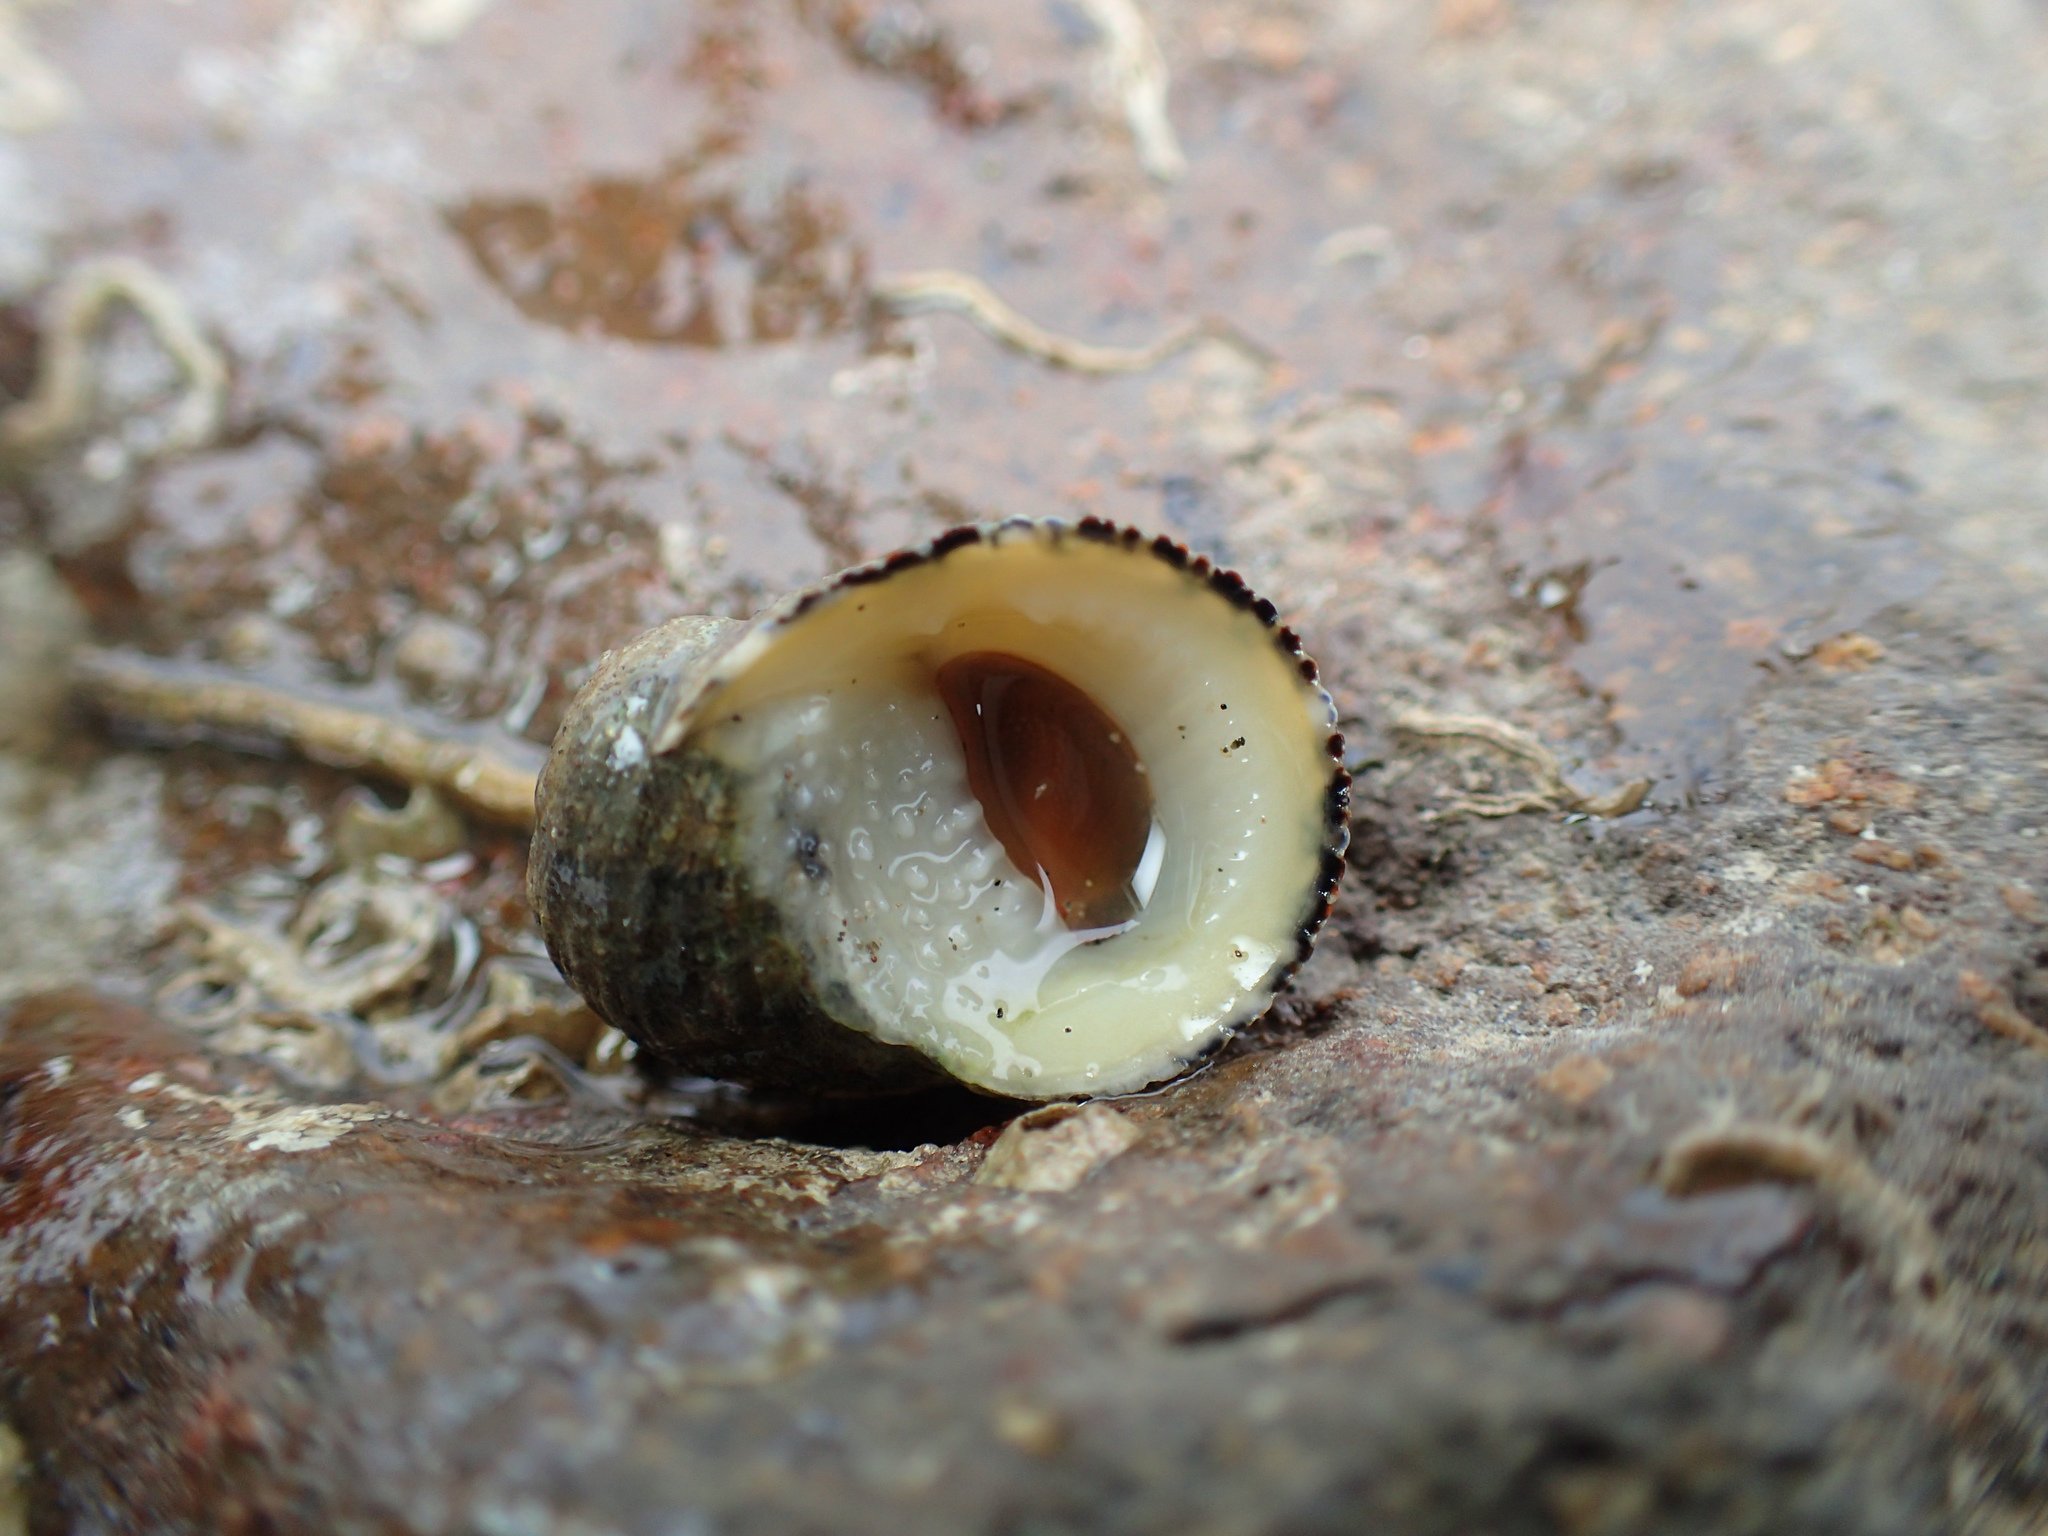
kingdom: Animalia
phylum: Mollusca
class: Gastropoda
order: Cycloneritida
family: Neritidae
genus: Nerita
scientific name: Nerita funiculata
